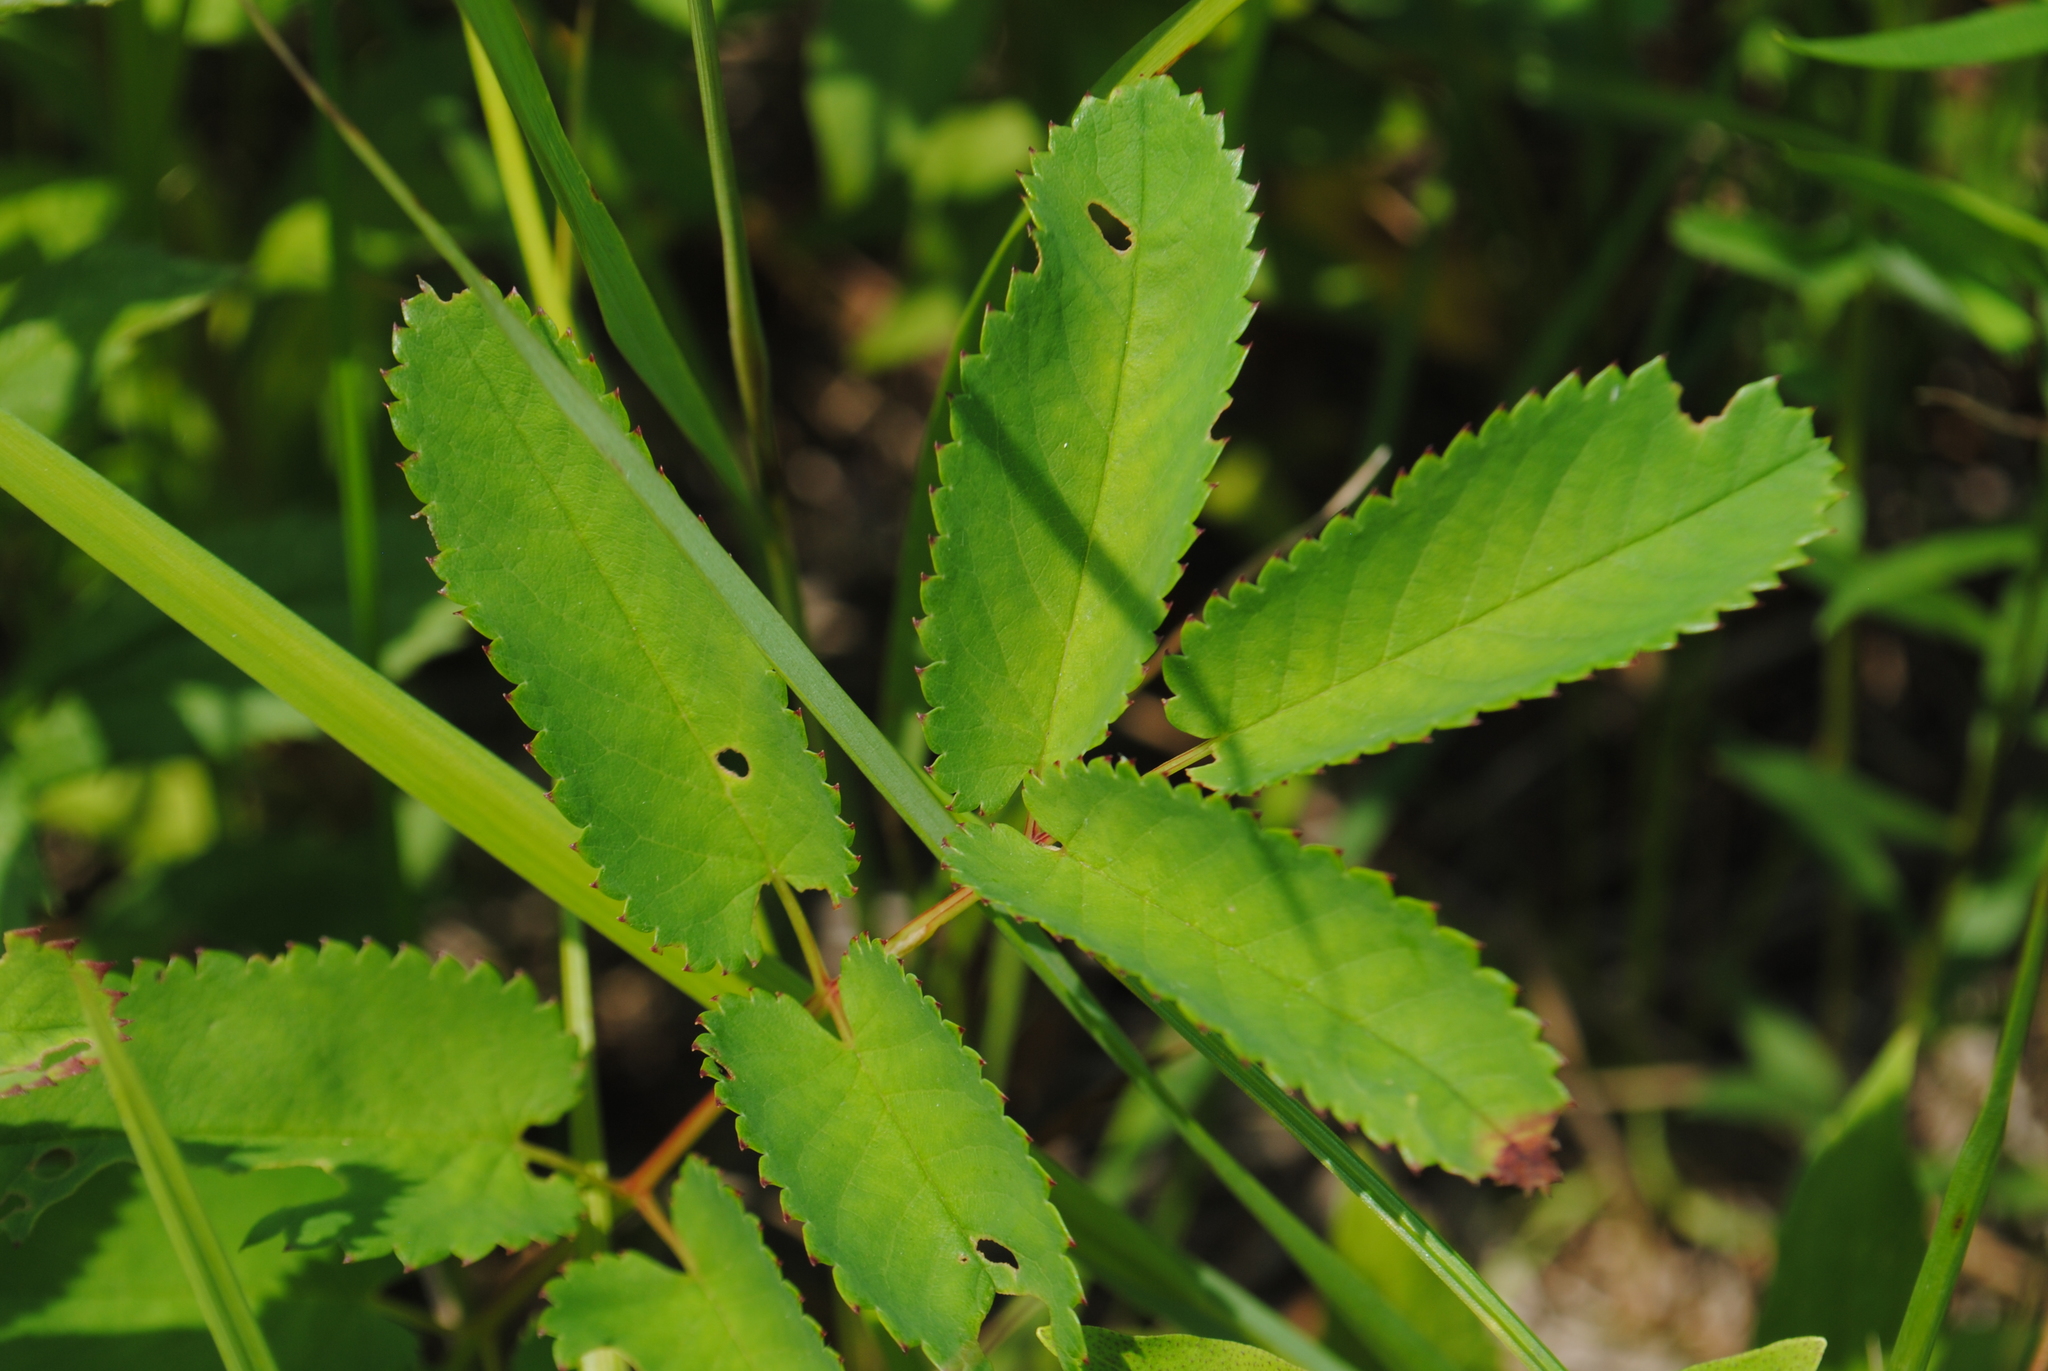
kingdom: Plantae
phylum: Tracheophyta
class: Magnoliopsida
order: Rosales
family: Rosaceae
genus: Sanguisorba
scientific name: Sanguisorba canadensis
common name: White burnet
